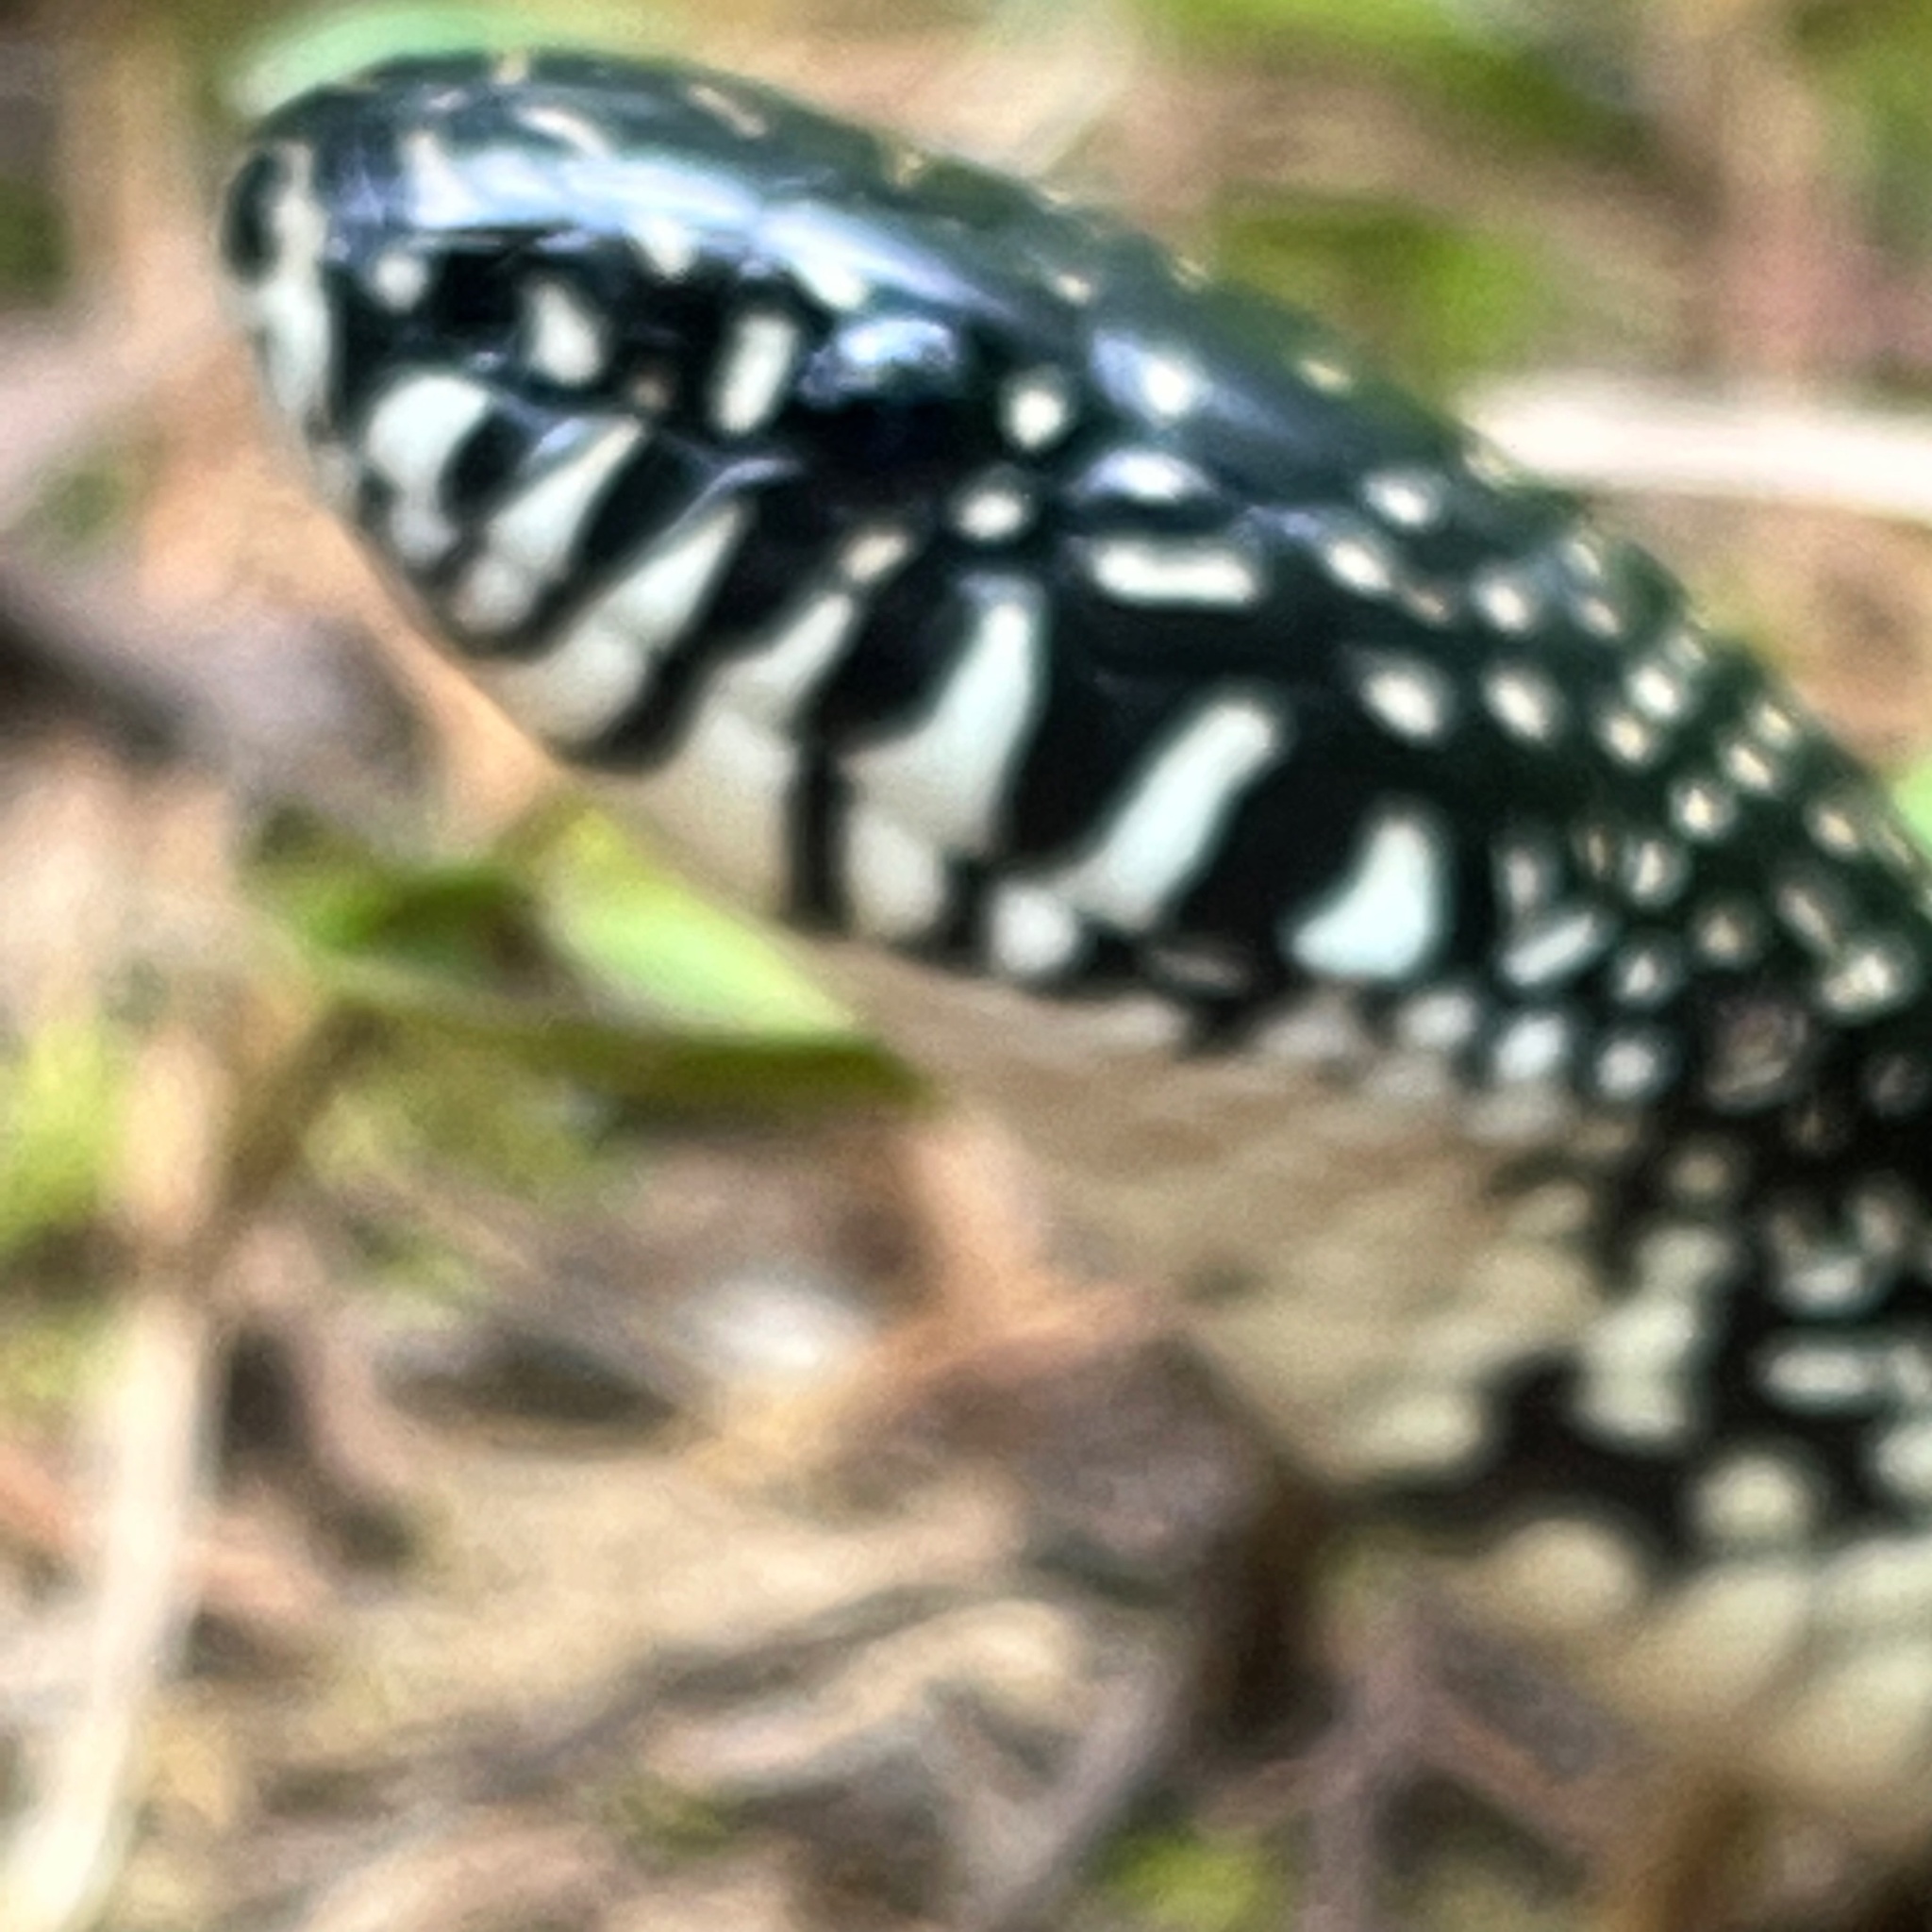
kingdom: Animalia
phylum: Chordata
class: Squamata
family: Colubridae
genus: Lampropeltis
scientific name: Lampropeltis nigra
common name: Black kingsnake
